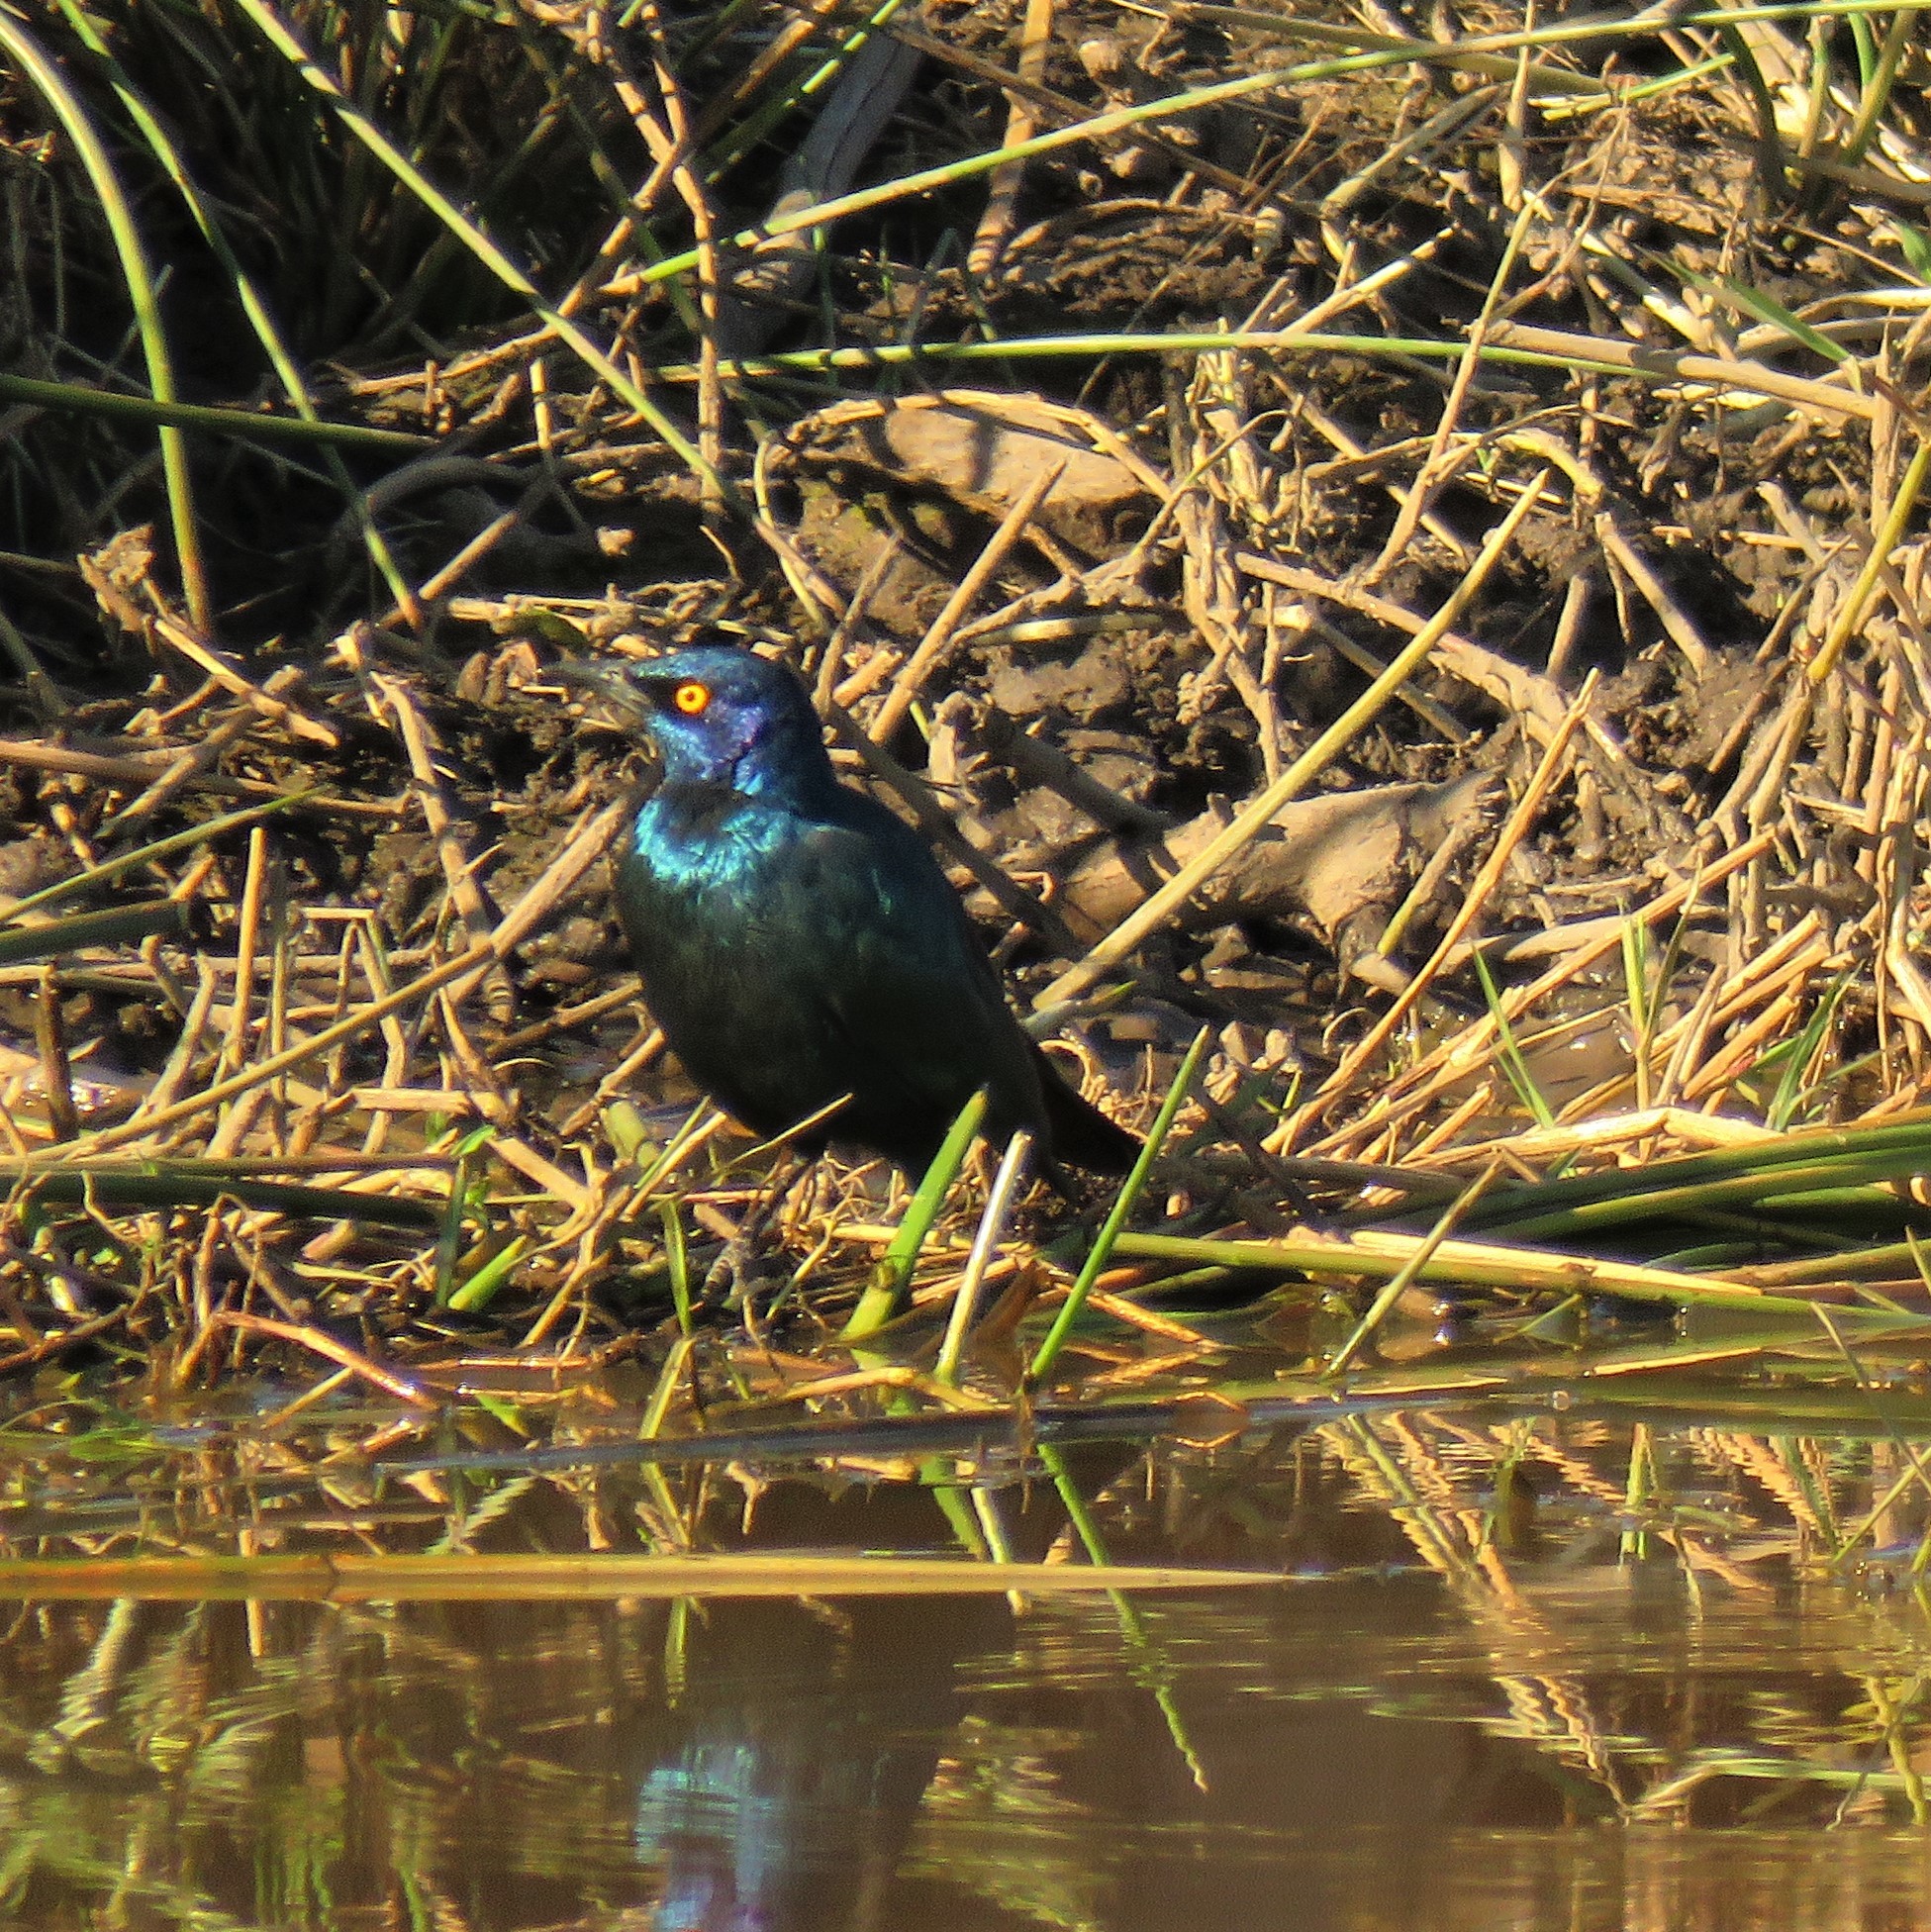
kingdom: Animalia
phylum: Chordata
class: Aves
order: Passeriformes
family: Sturnidae
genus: Lamprotornis
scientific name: Lamprotornis nitens
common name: Cape starling
